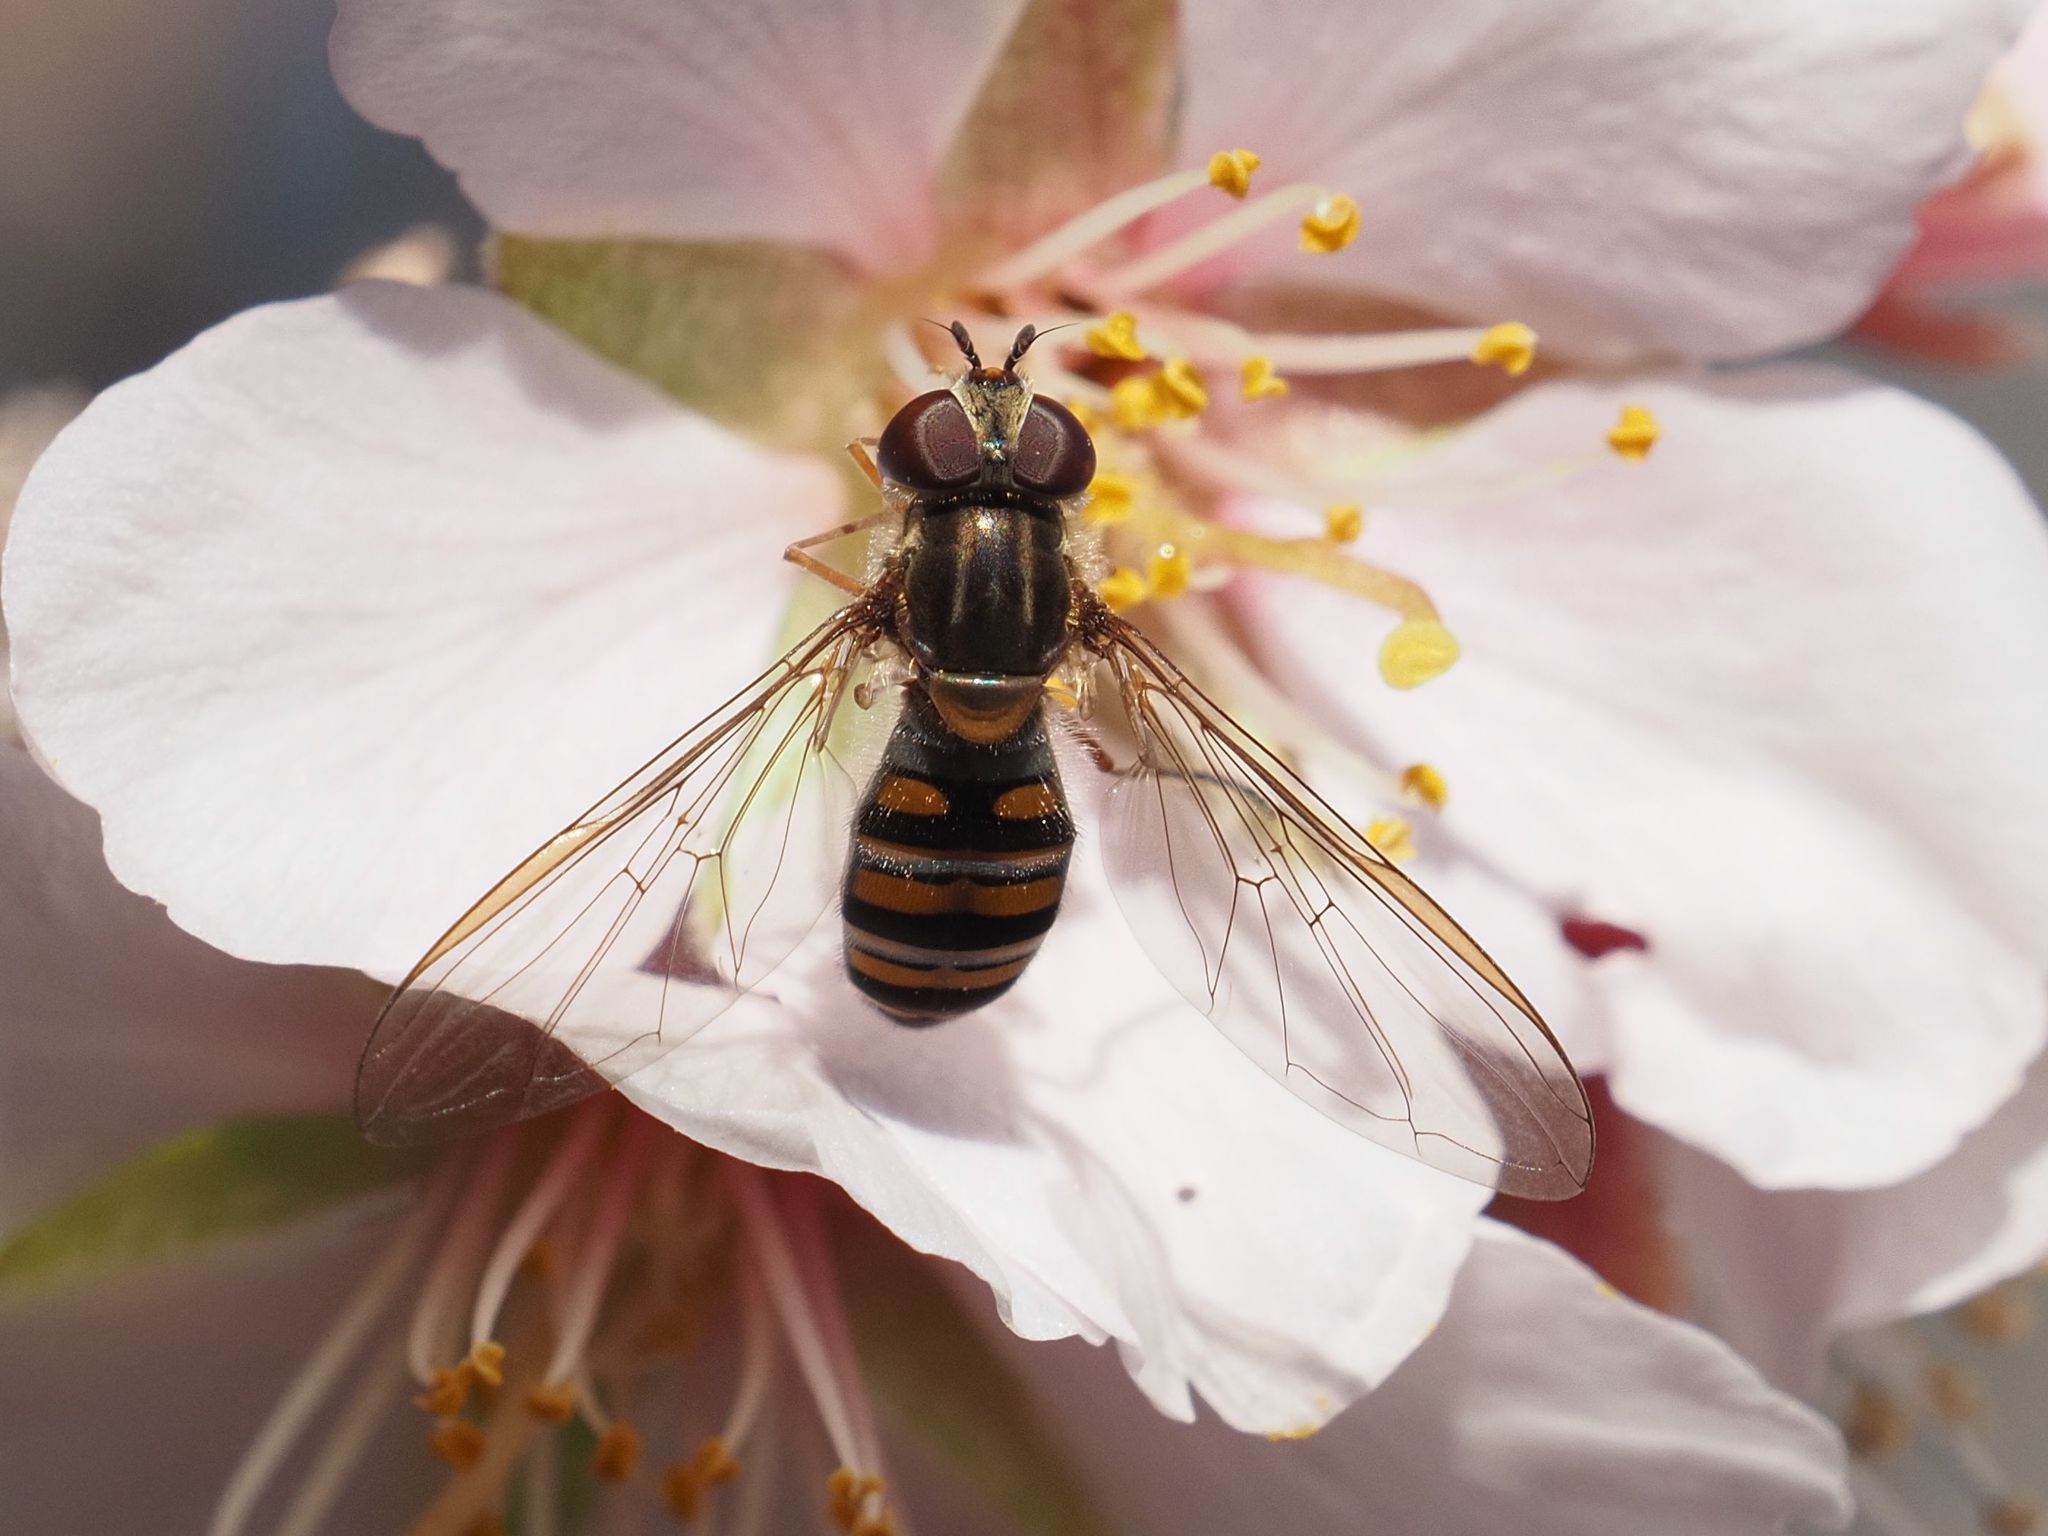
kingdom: Animalia
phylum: Arthropoda
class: Insecta
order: Diptera
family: Syrphidae
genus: Episyrphus
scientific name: Episyrphus balteatus
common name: Marmalade hoverfly
